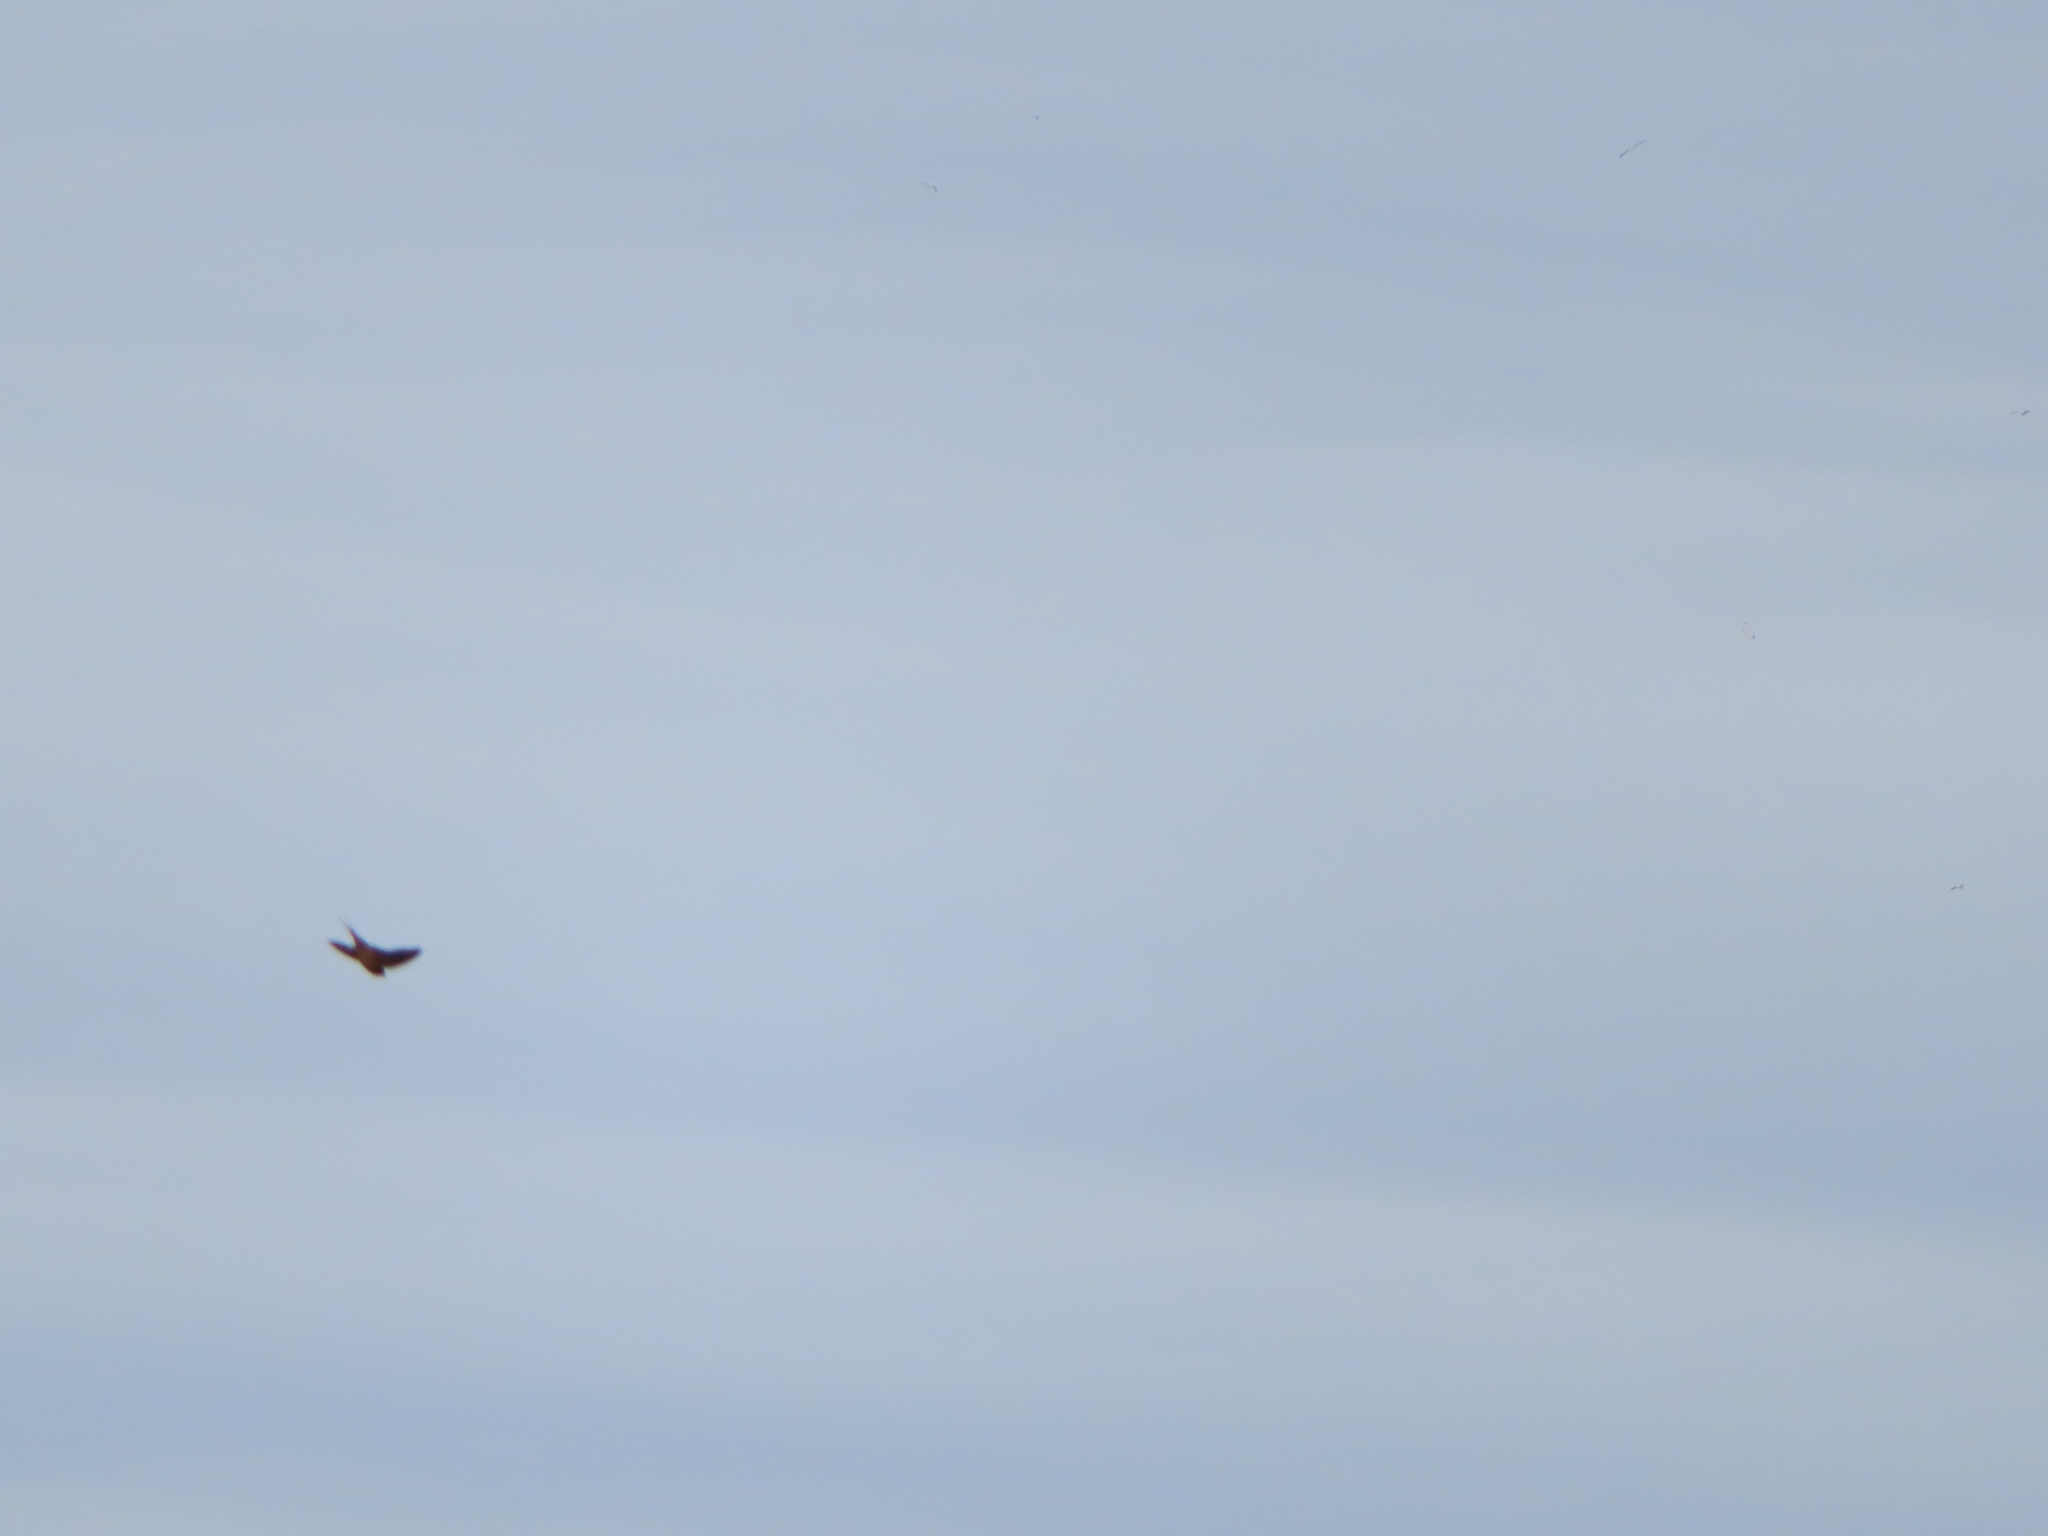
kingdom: Animalia
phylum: Chordata
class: Aves
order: Passeriformes
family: Hirundinidae
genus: Hirundo
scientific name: Hirundo rustica
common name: Barn swallow
